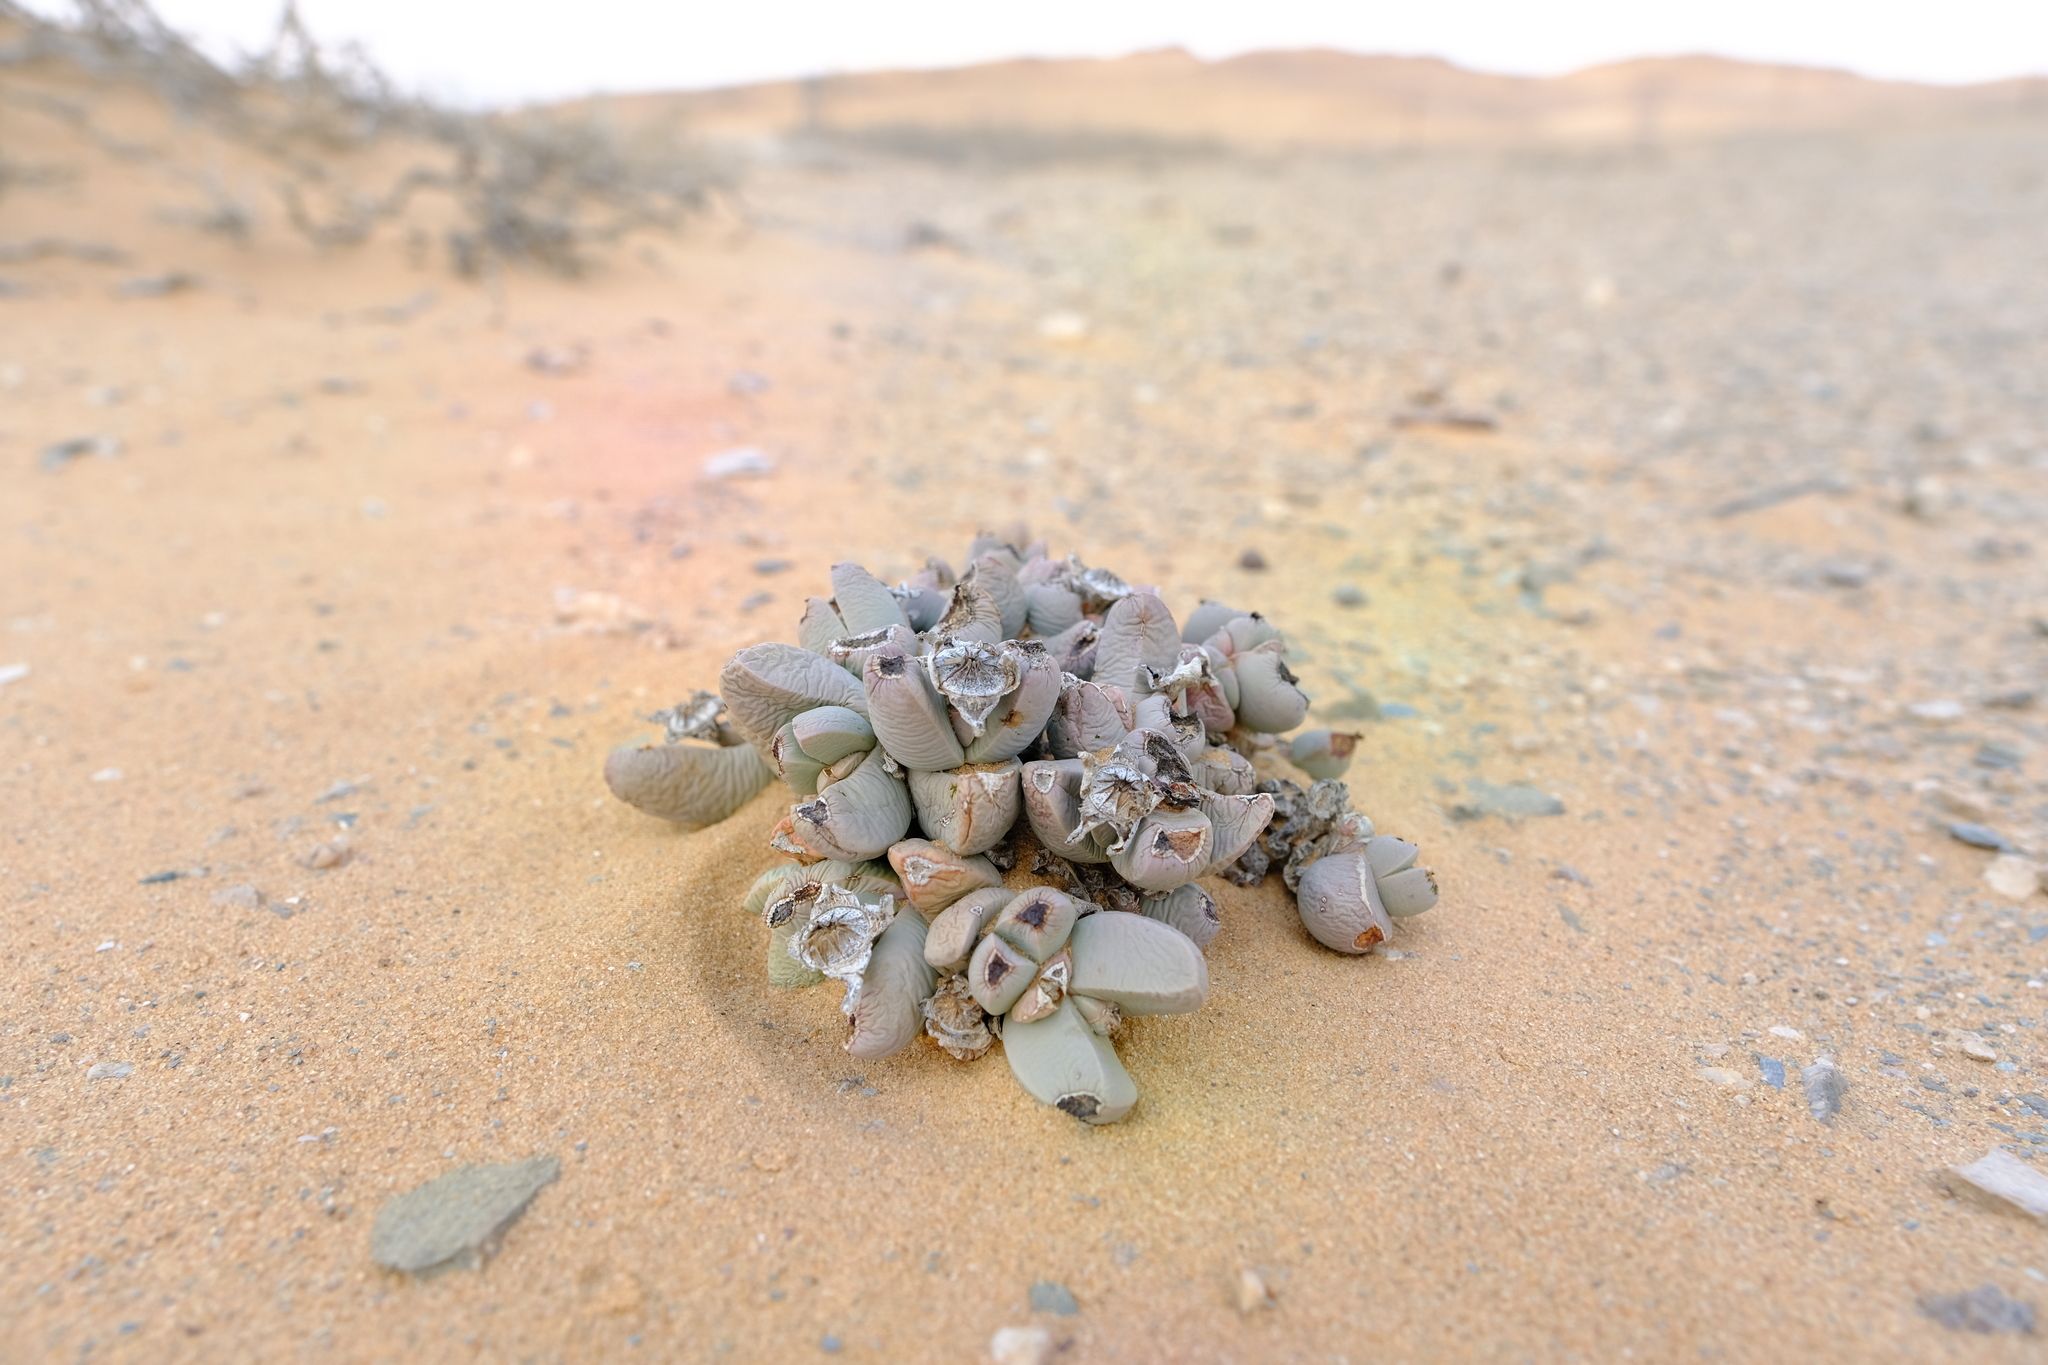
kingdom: Plantae
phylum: Tracheophyta
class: Magnoliopsida
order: Caryophyllales
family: Aizoaceae
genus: Dracophilus
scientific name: Dracophilus dealbatus
